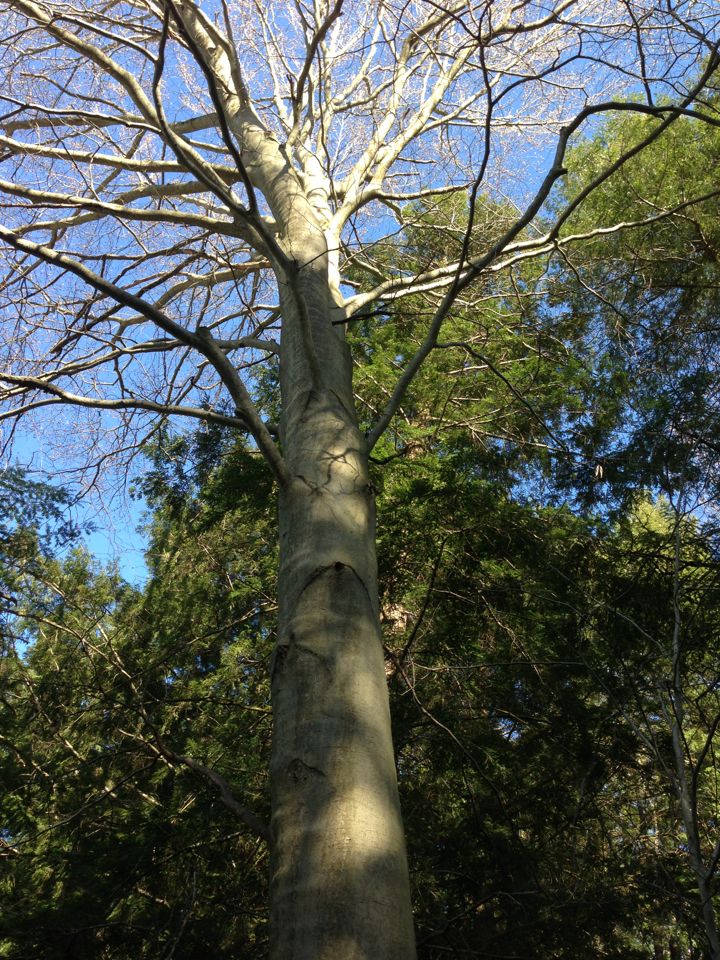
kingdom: Plantae
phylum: Tracheophyta
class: Magnoliopsida
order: Fagales
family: Fagaceae
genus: Fagus
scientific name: Fagus grandifolia
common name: American beech
